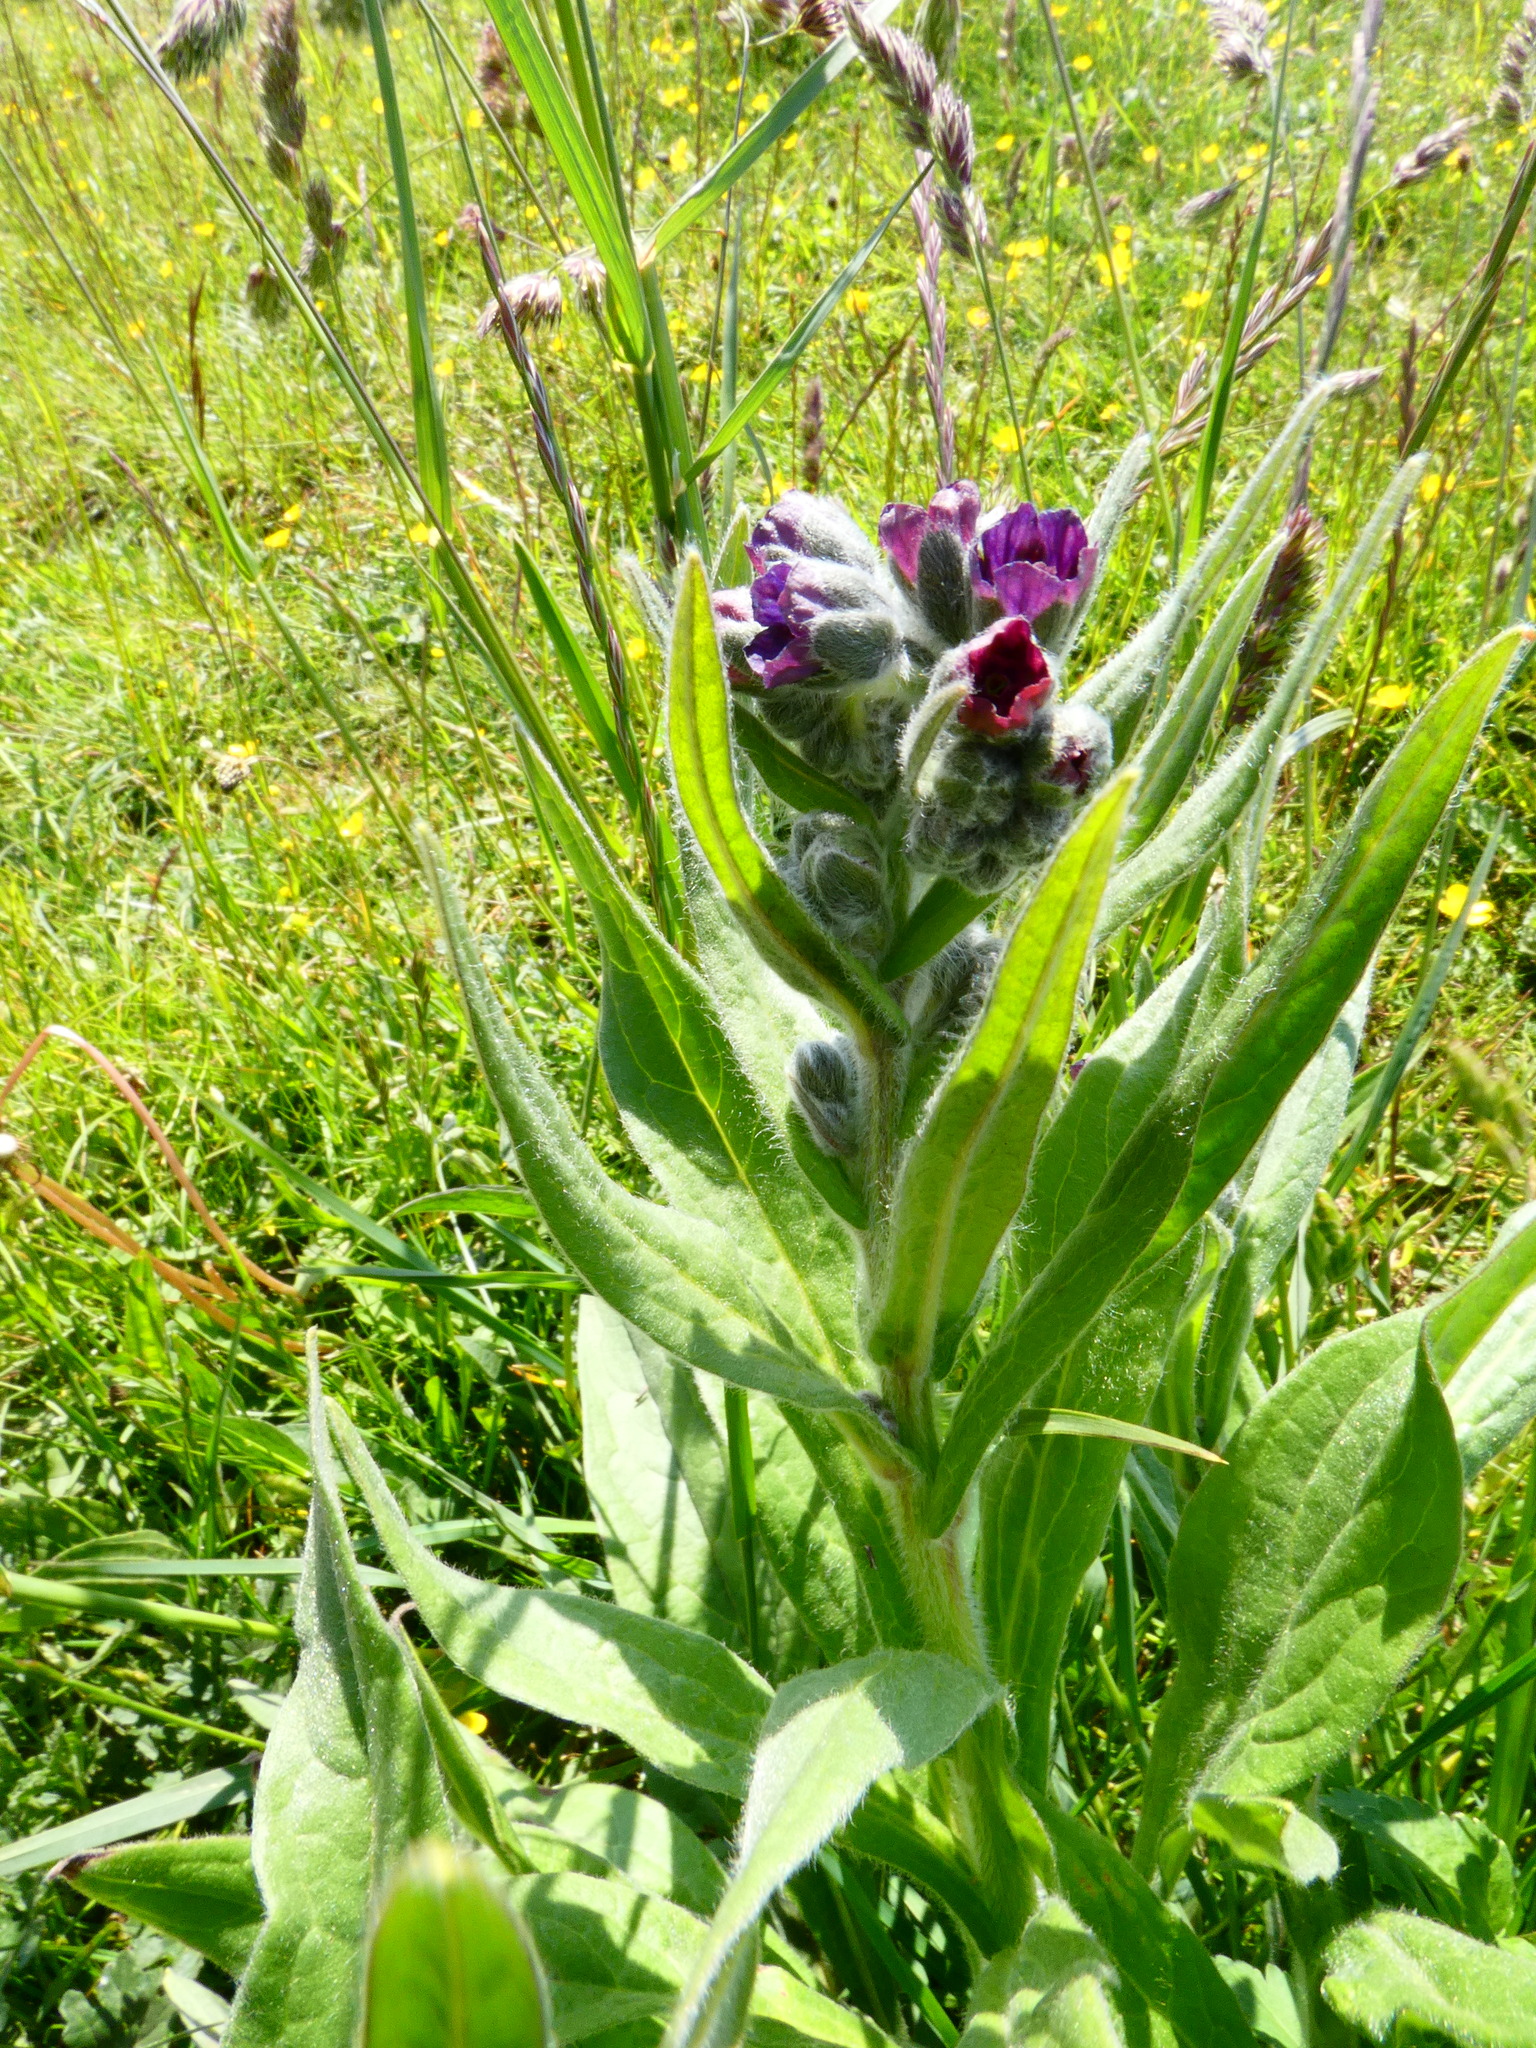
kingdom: Plantae
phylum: Tracheophyta
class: Magnoliopsida
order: Boraginales
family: Boraginaceae
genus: Cynoglossum
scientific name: Cynoglossum officinale
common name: Hound's-tongue
